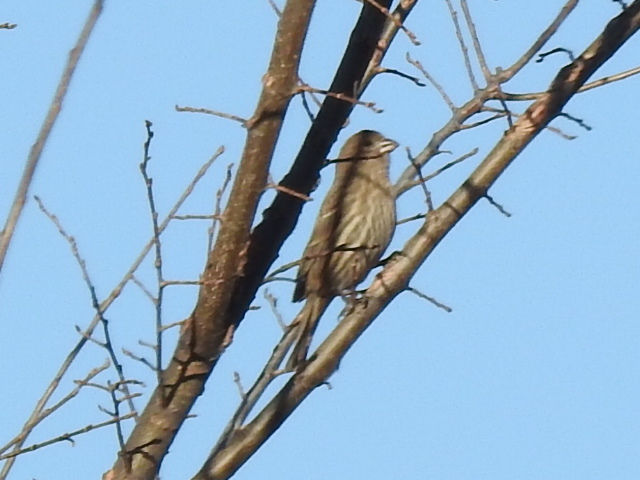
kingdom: Animalia
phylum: Chordata
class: Aves
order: Passeriformes
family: Fringillidae
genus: Haemorhous
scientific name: Haemorhous mexicanus
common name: House finch
